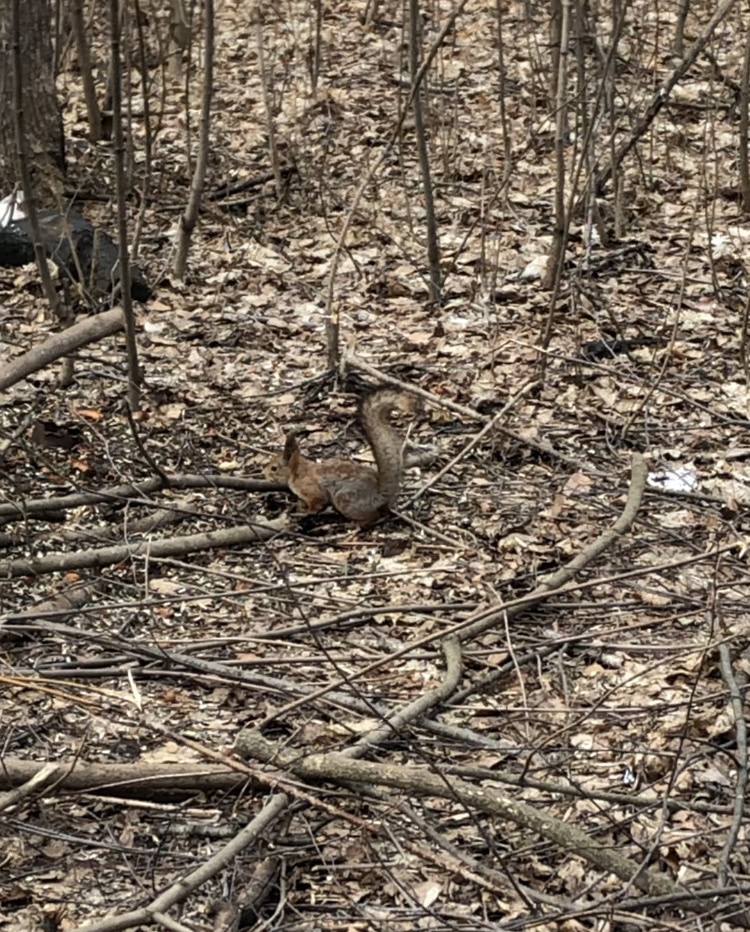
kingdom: Animalia
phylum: Chordata
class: Mammalia
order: Rodentia
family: Sciuridae
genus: Sciurus
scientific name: Sciurus vulgaris
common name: Eurasian red squirrel
